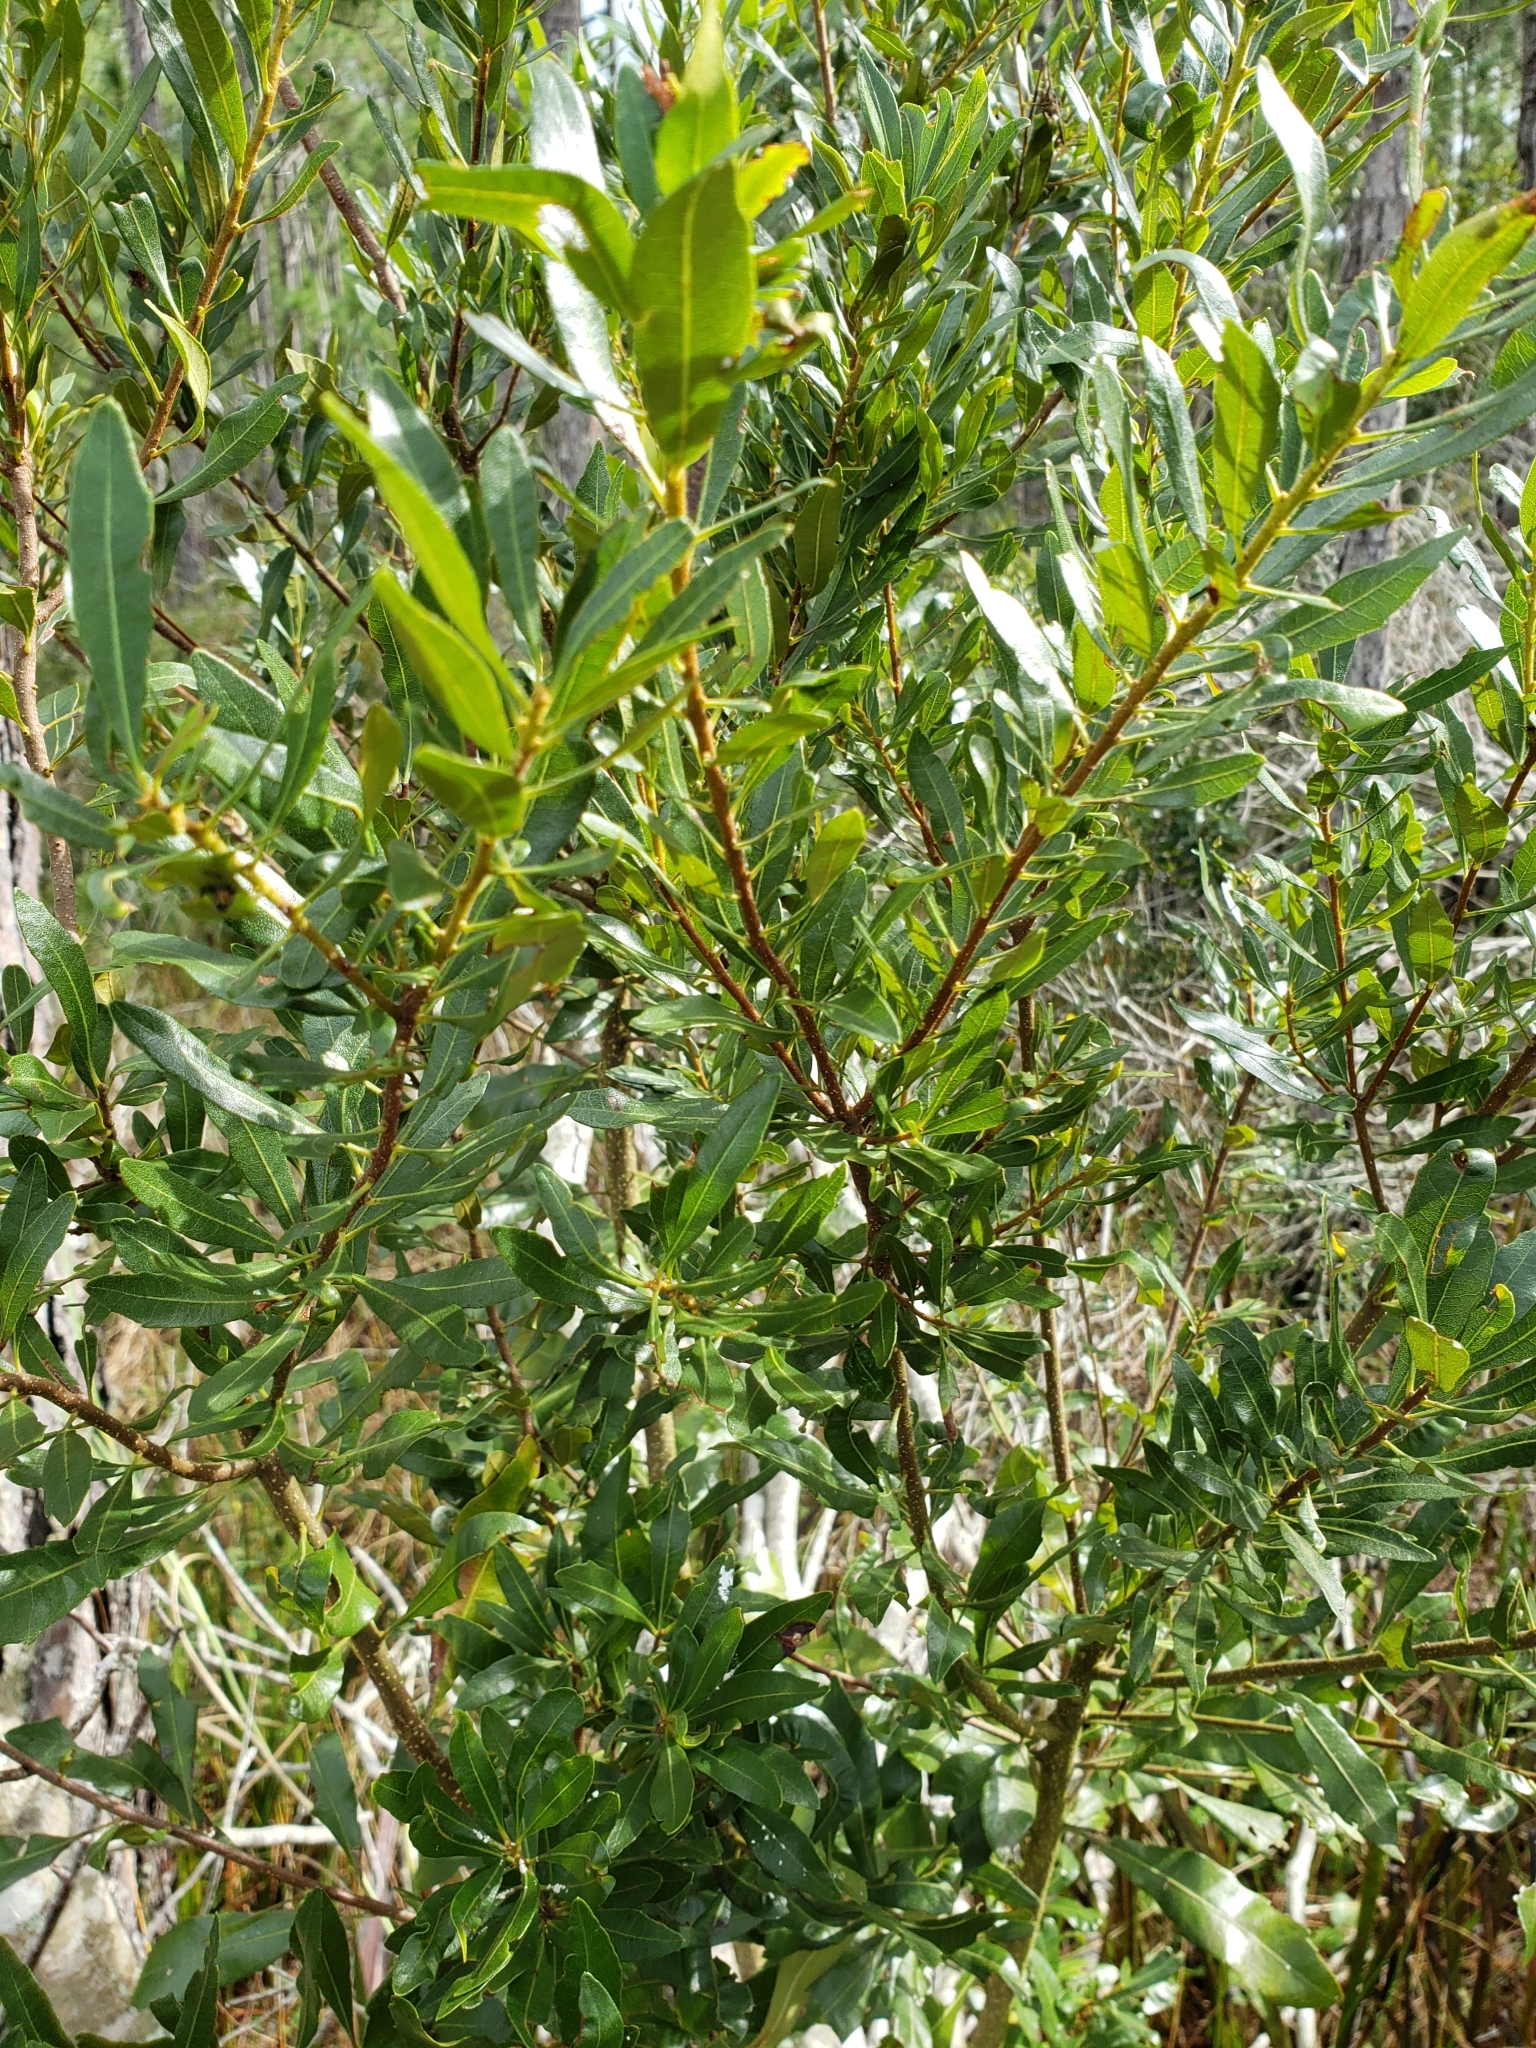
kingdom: Plantae
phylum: Tracheophyta
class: Magnoliopsida
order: Fagales
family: Myricaceae
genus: Morella
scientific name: Morella cerifera
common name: Wax myrtle
